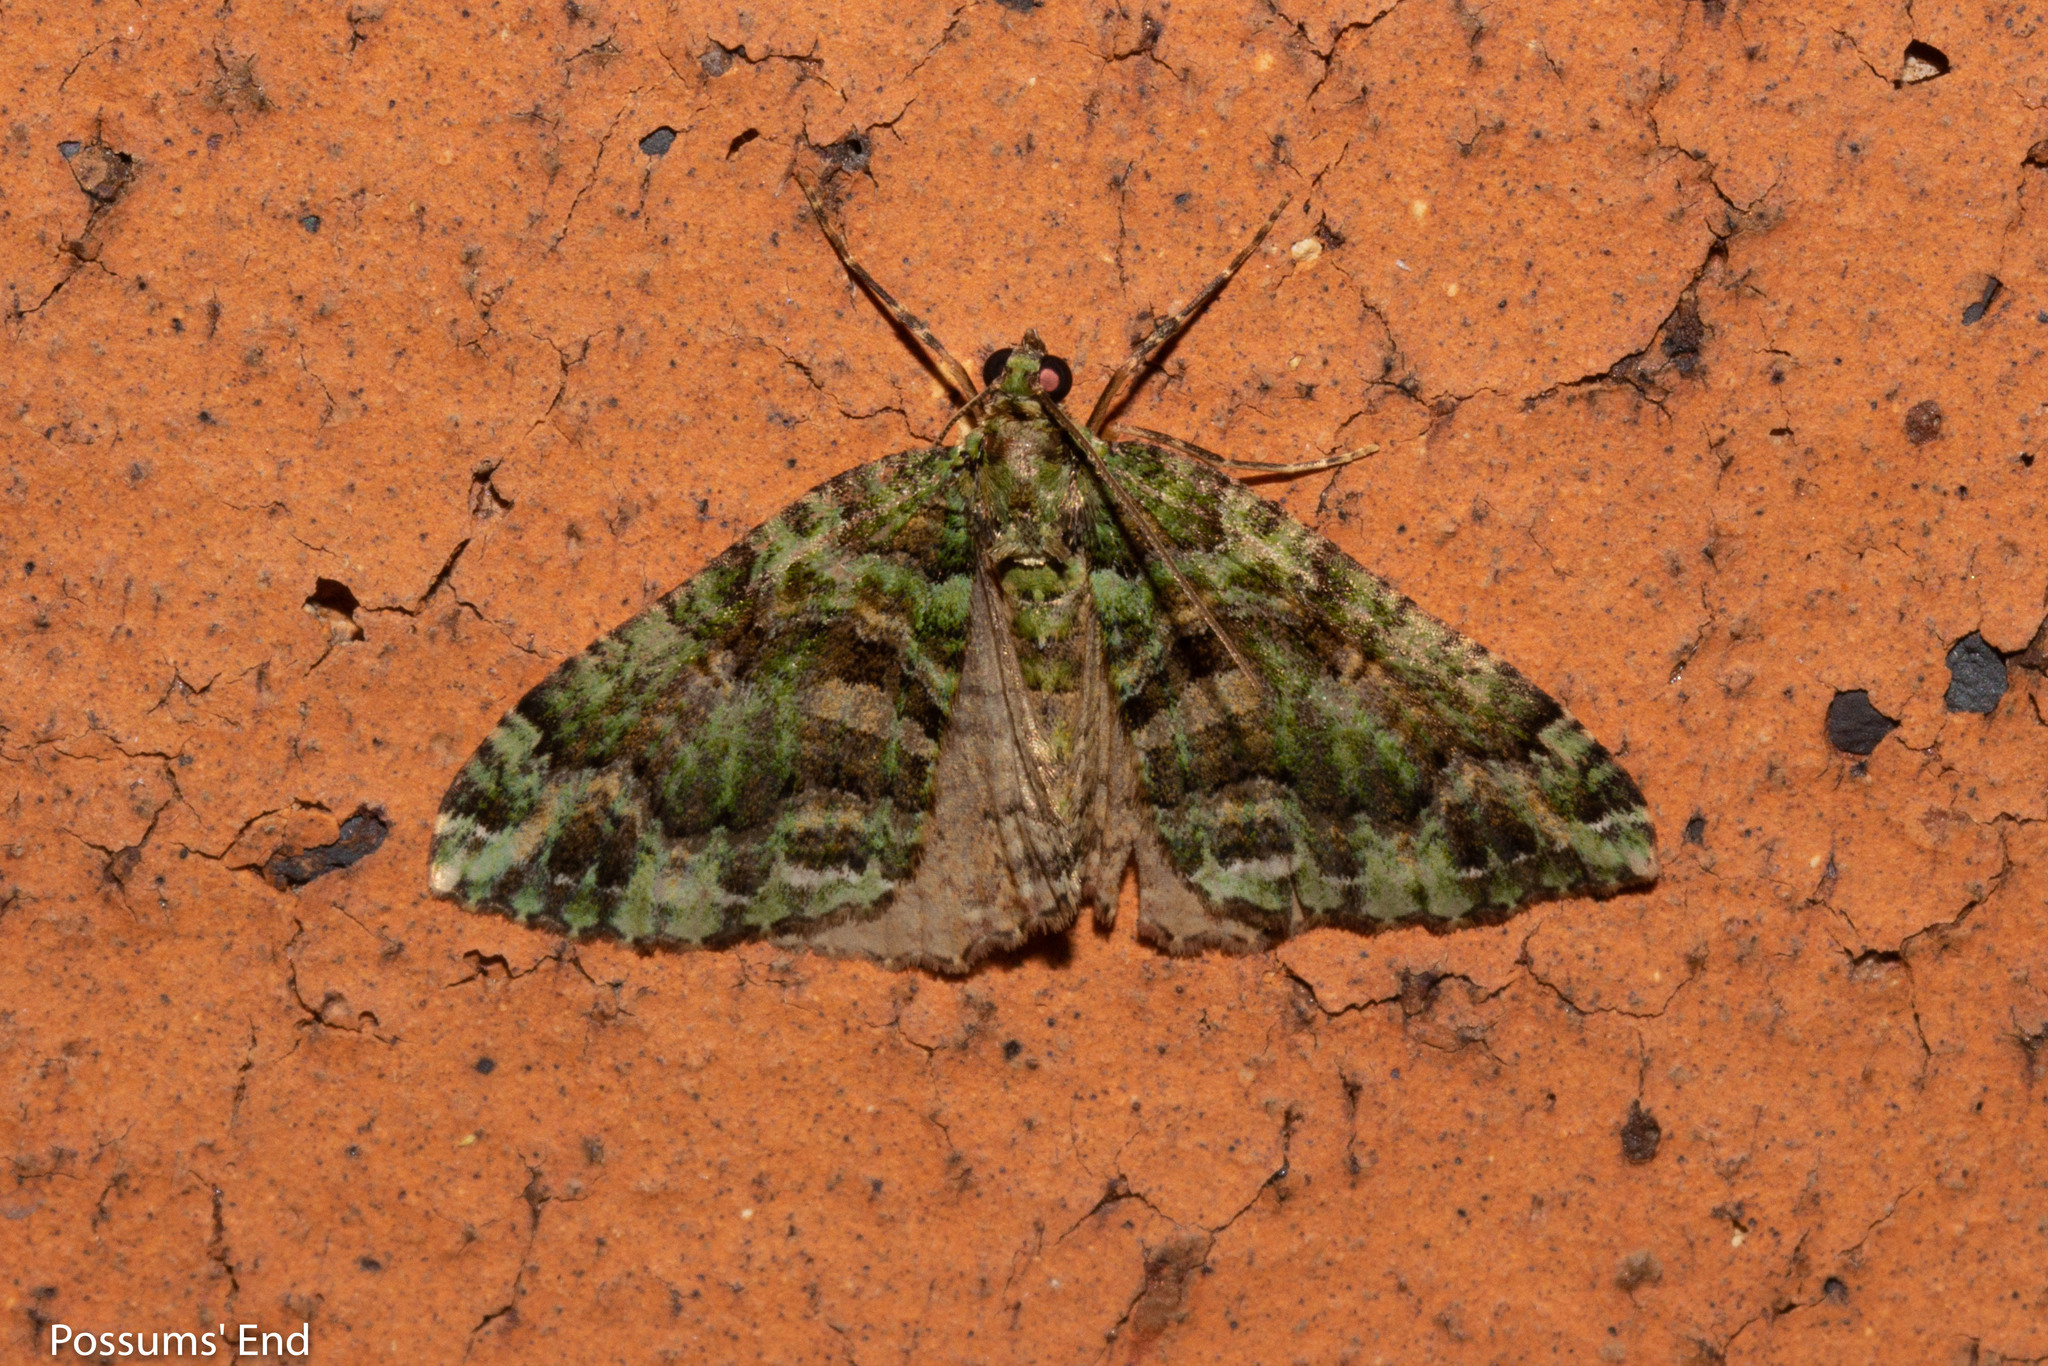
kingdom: Animalia
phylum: Arthropoda
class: Insecta
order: Lepidoptera
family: Geometridae
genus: Austrocidaria
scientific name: Austrocidaria similata
